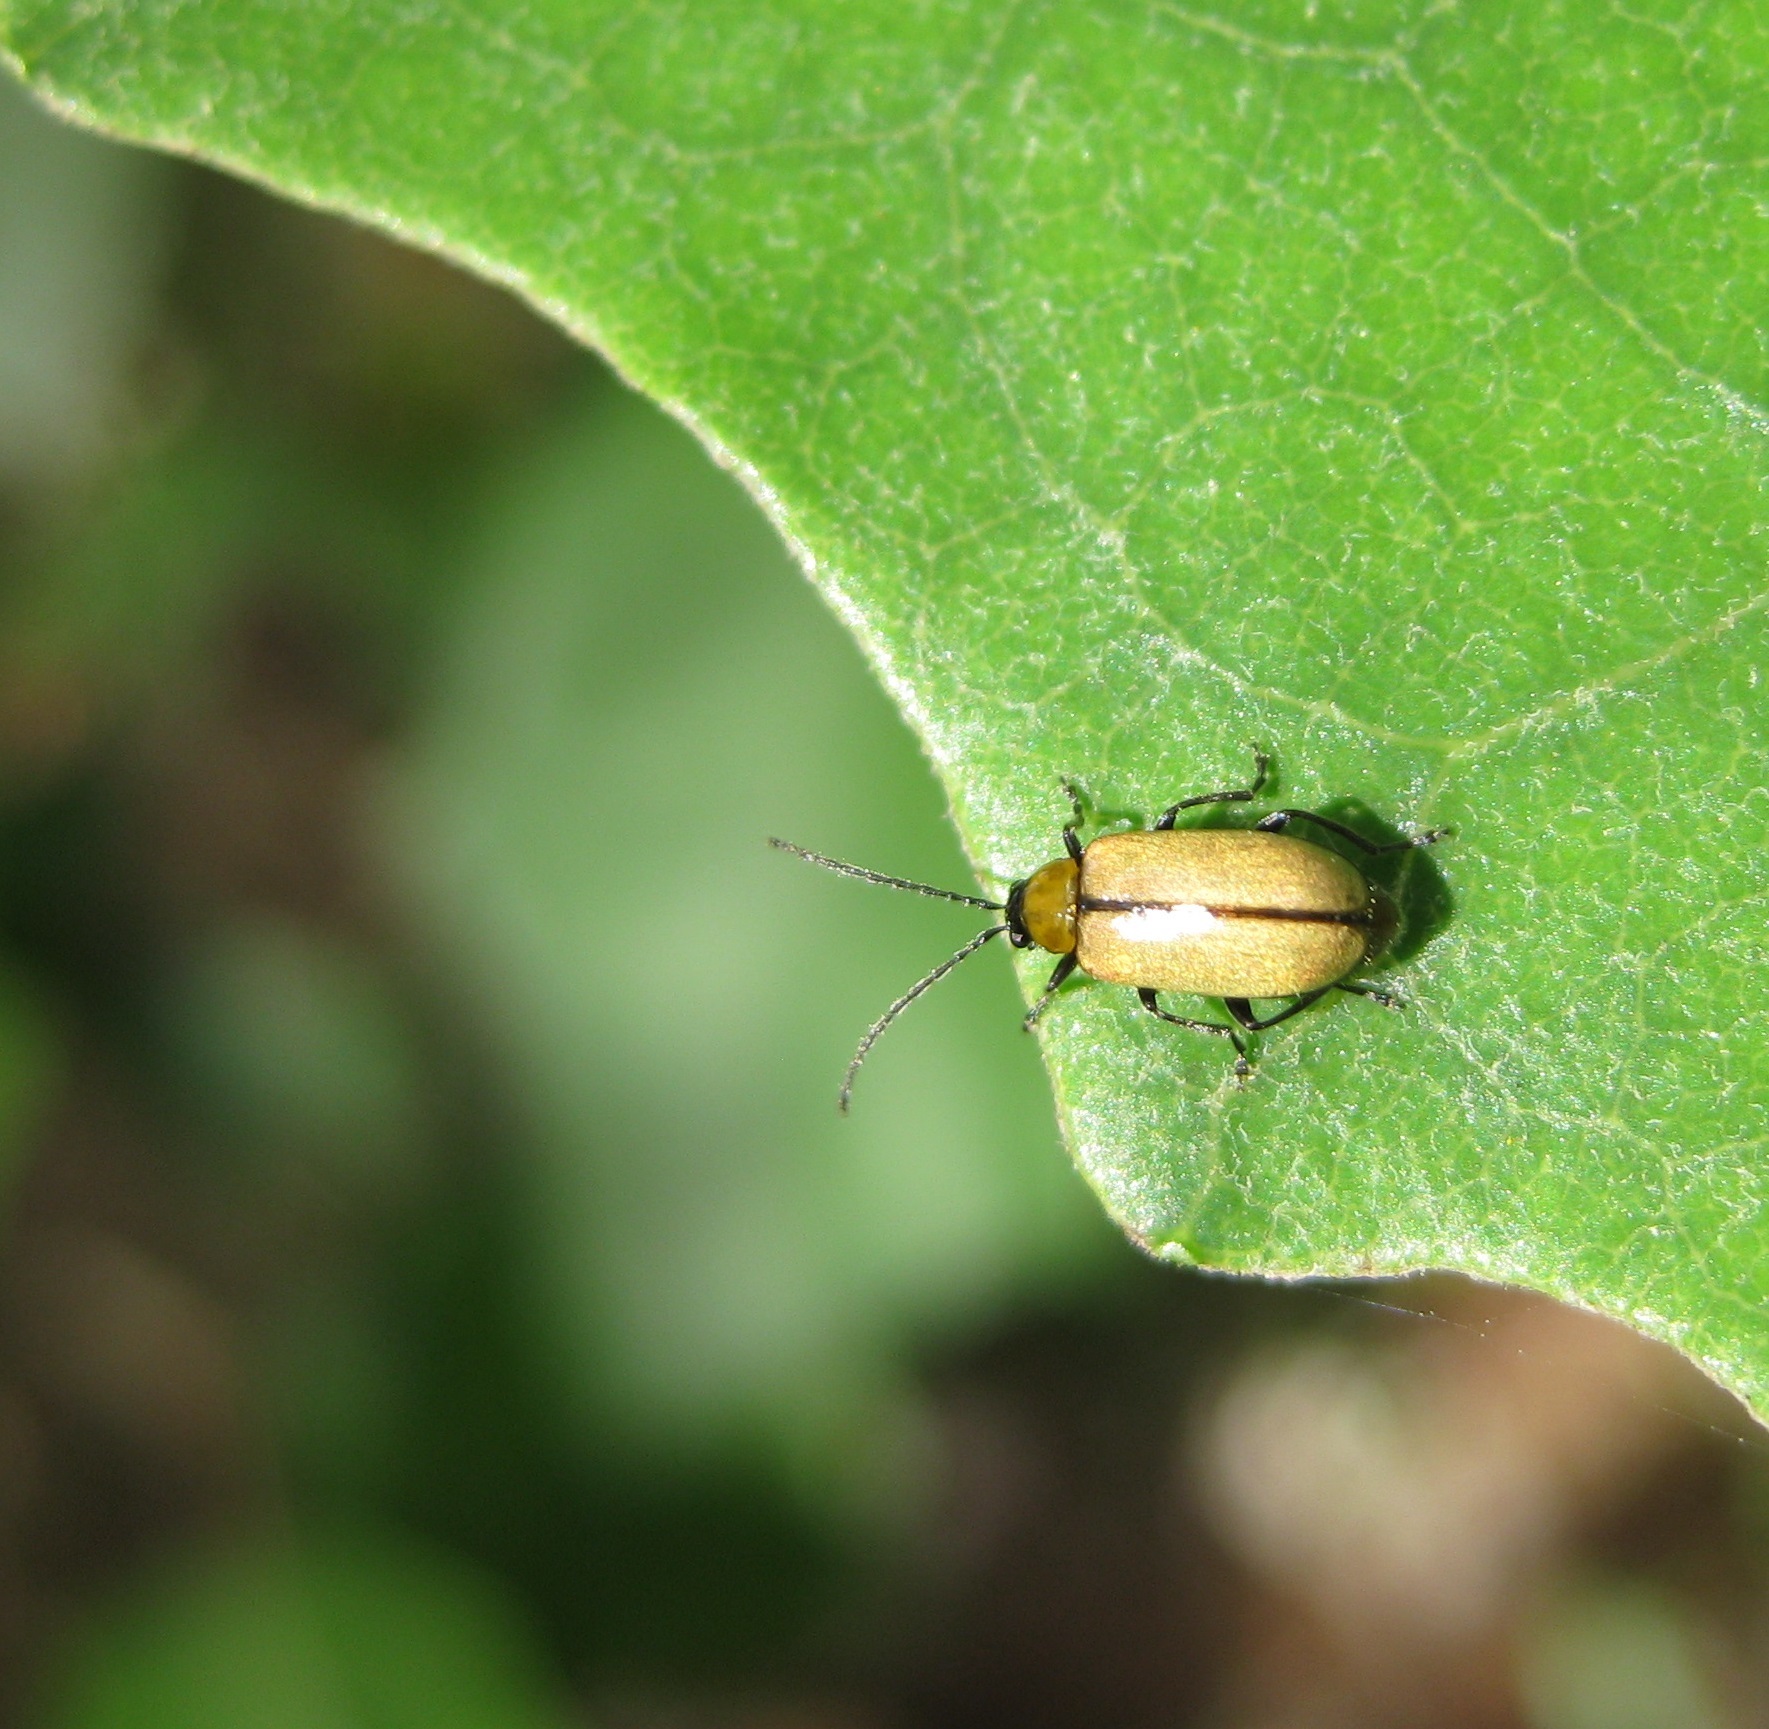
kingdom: Animalia
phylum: Arthropoda
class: Insecta
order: Coleoptera
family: Chrysomelidae
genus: Adoxia
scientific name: Adoxia
